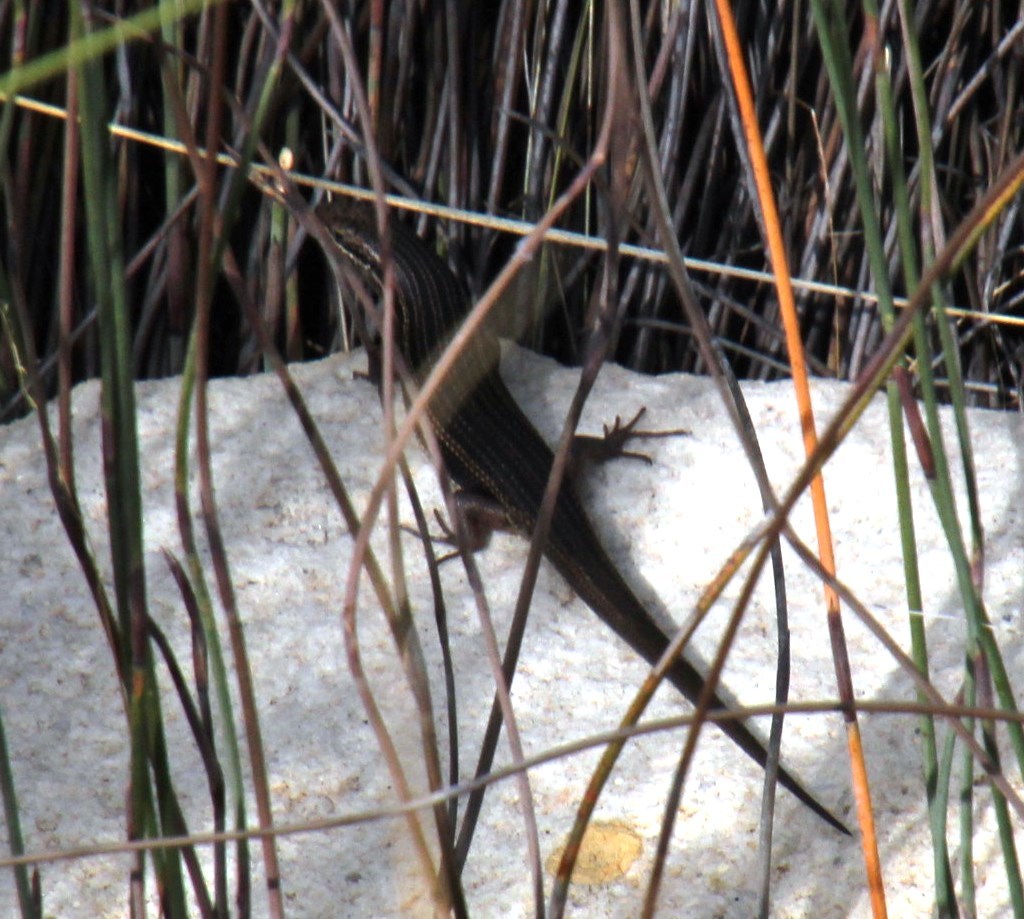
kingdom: Animalia
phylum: Chordata
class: Squamata
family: Scincidae
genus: Trachylepis
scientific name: Trachylepis homalocephala
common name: Red-sided skink
